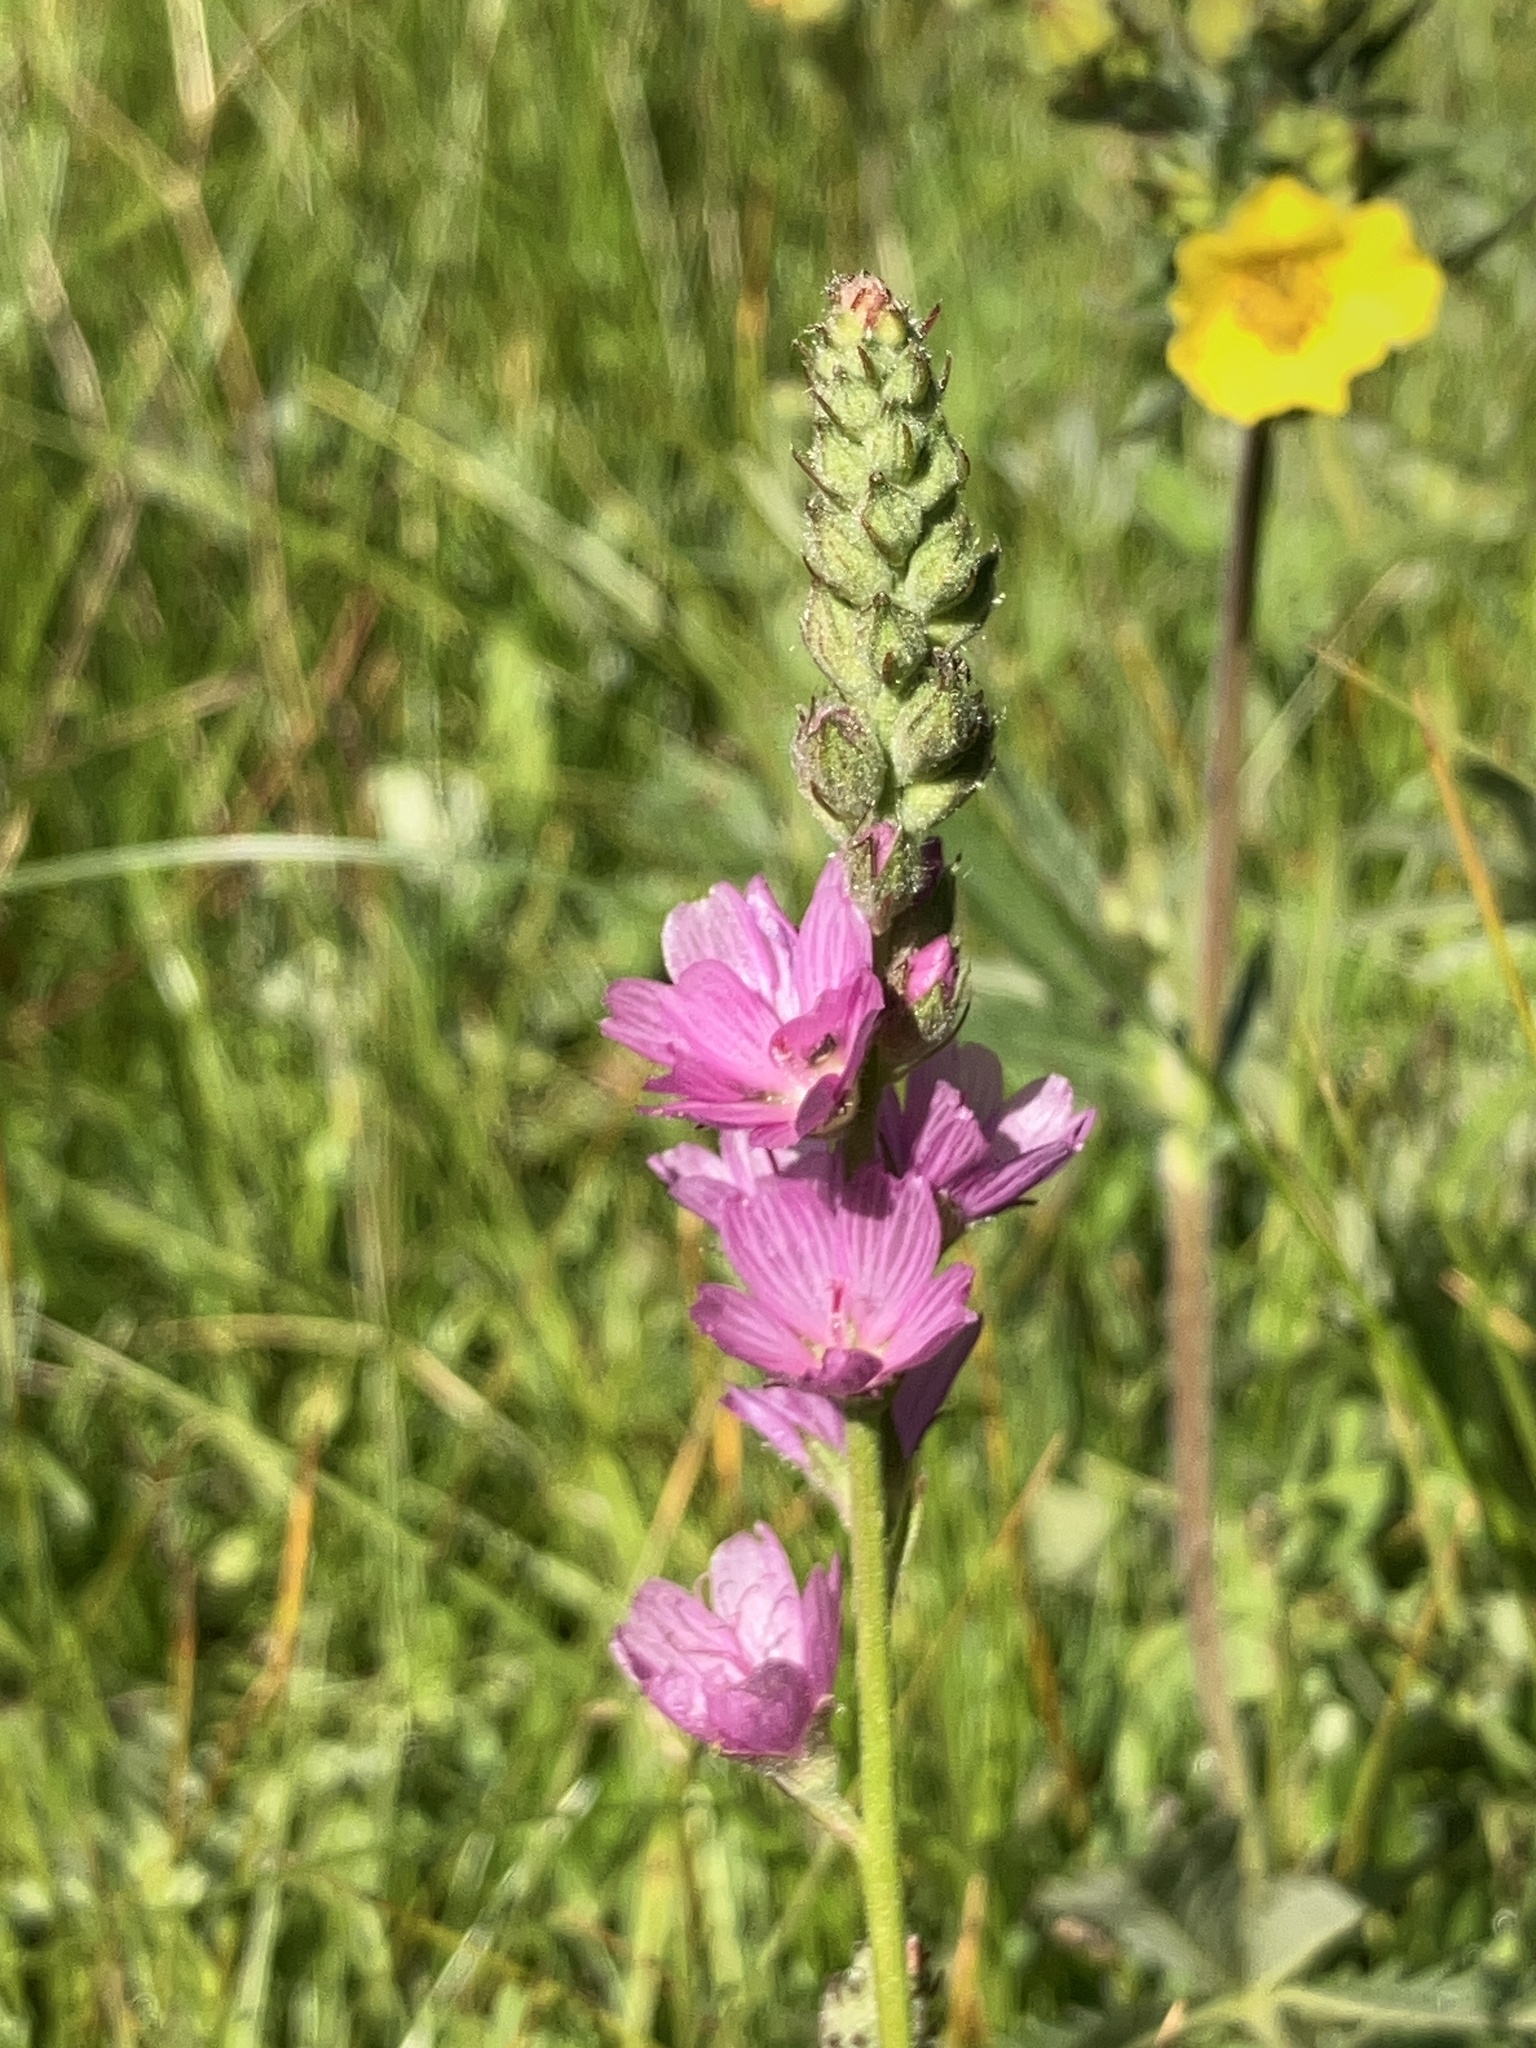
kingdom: Plantae
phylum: Tracheophyta
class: Magnoliopsida
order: Malvales
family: Malvaceae
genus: Sidalcea
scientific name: Sidalcea oregana
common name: Oregon checker-mallow
